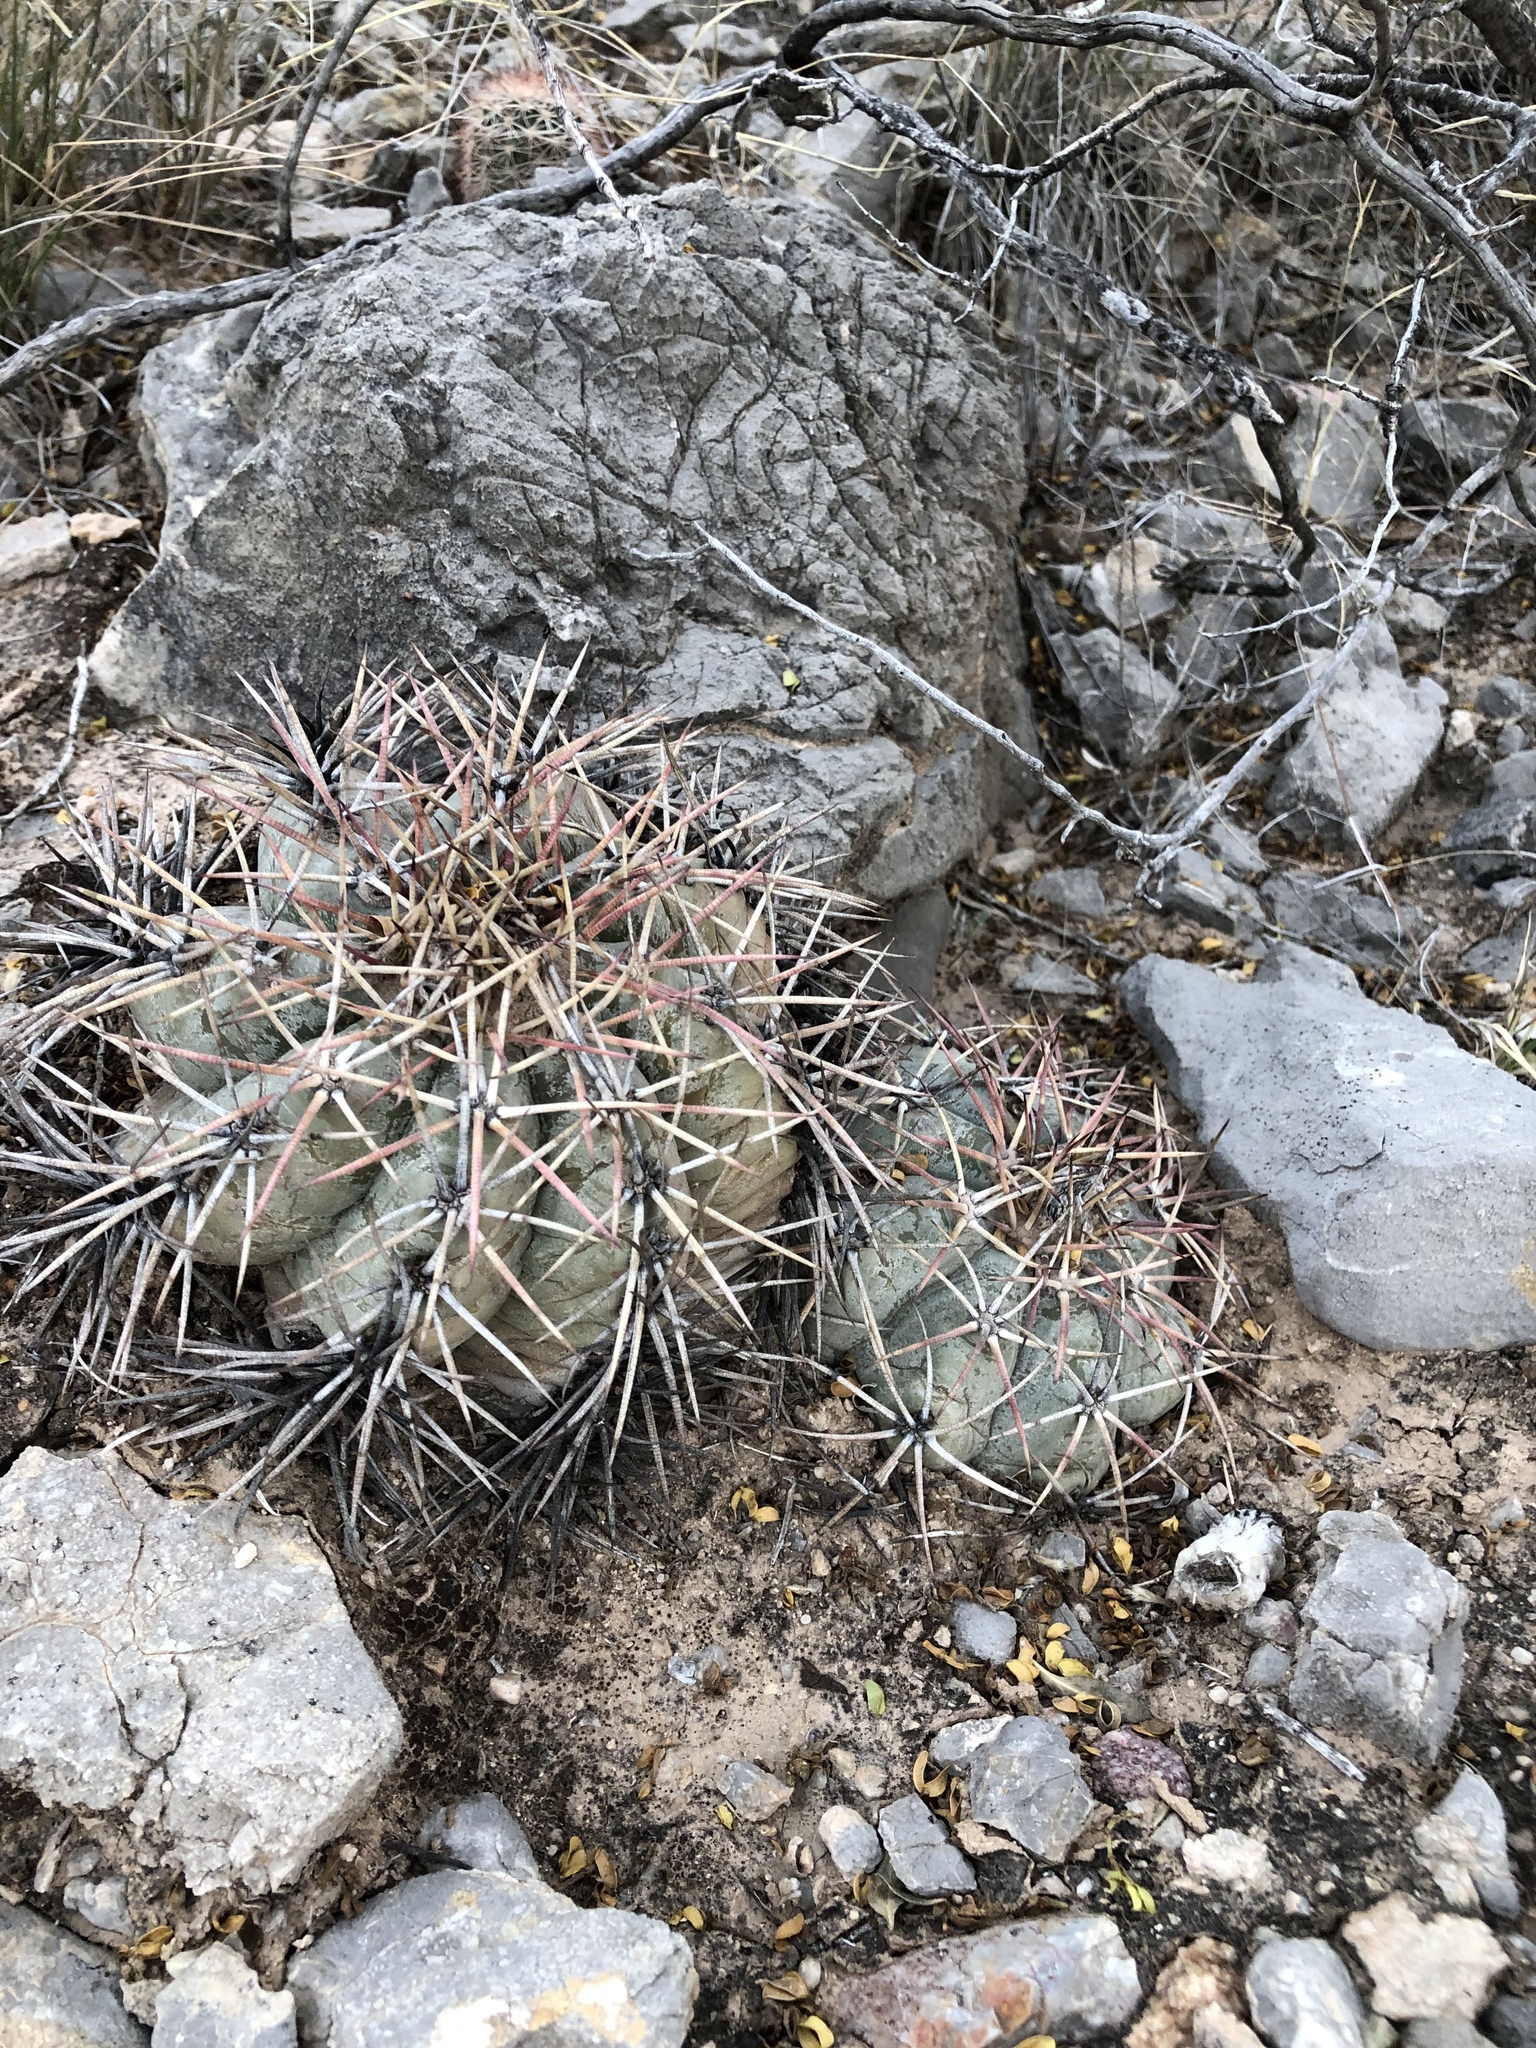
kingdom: Plantae
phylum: Tracheophyta
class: Magnoliopsida
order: Caryophyllales
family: Cactaceae
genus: Echinocactus
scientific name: Echinocactus horizonthalonius
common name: Devilshead
